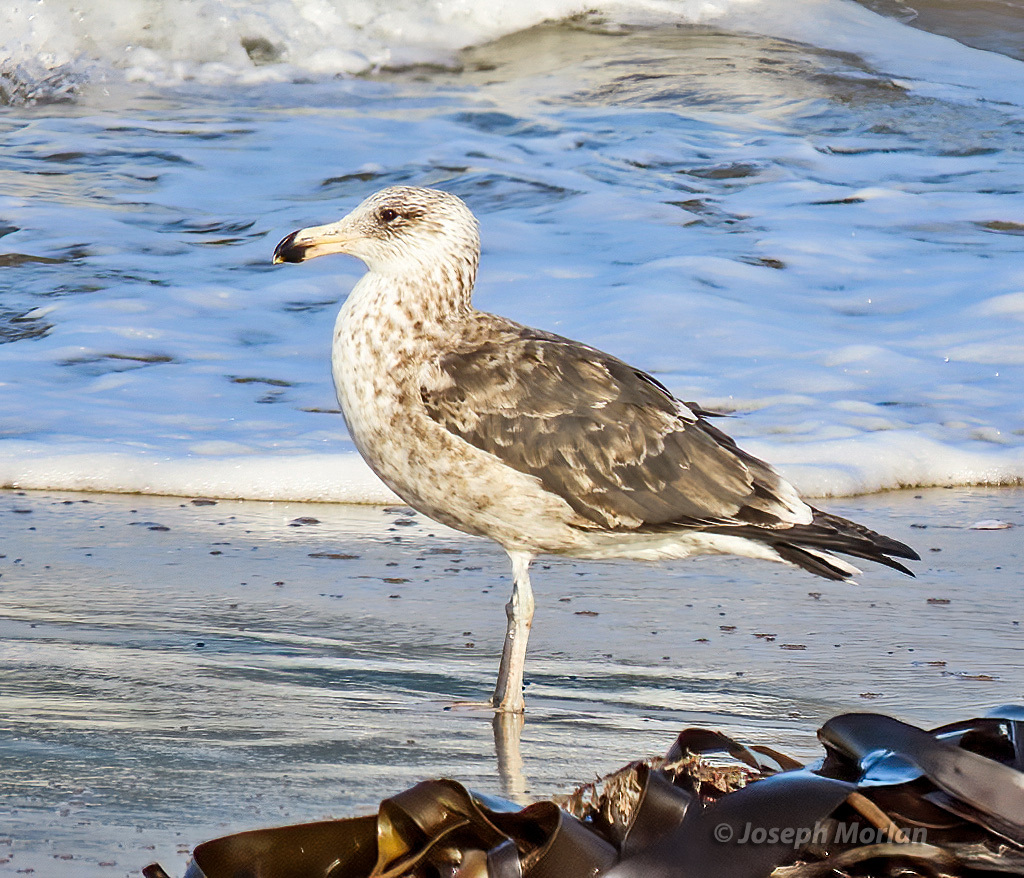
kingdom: Animalia
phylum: Chordata
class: Aves
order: Charadriiformes
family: Laridae
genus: Larus
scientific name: Larus dominicanus
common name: Kelp gull
